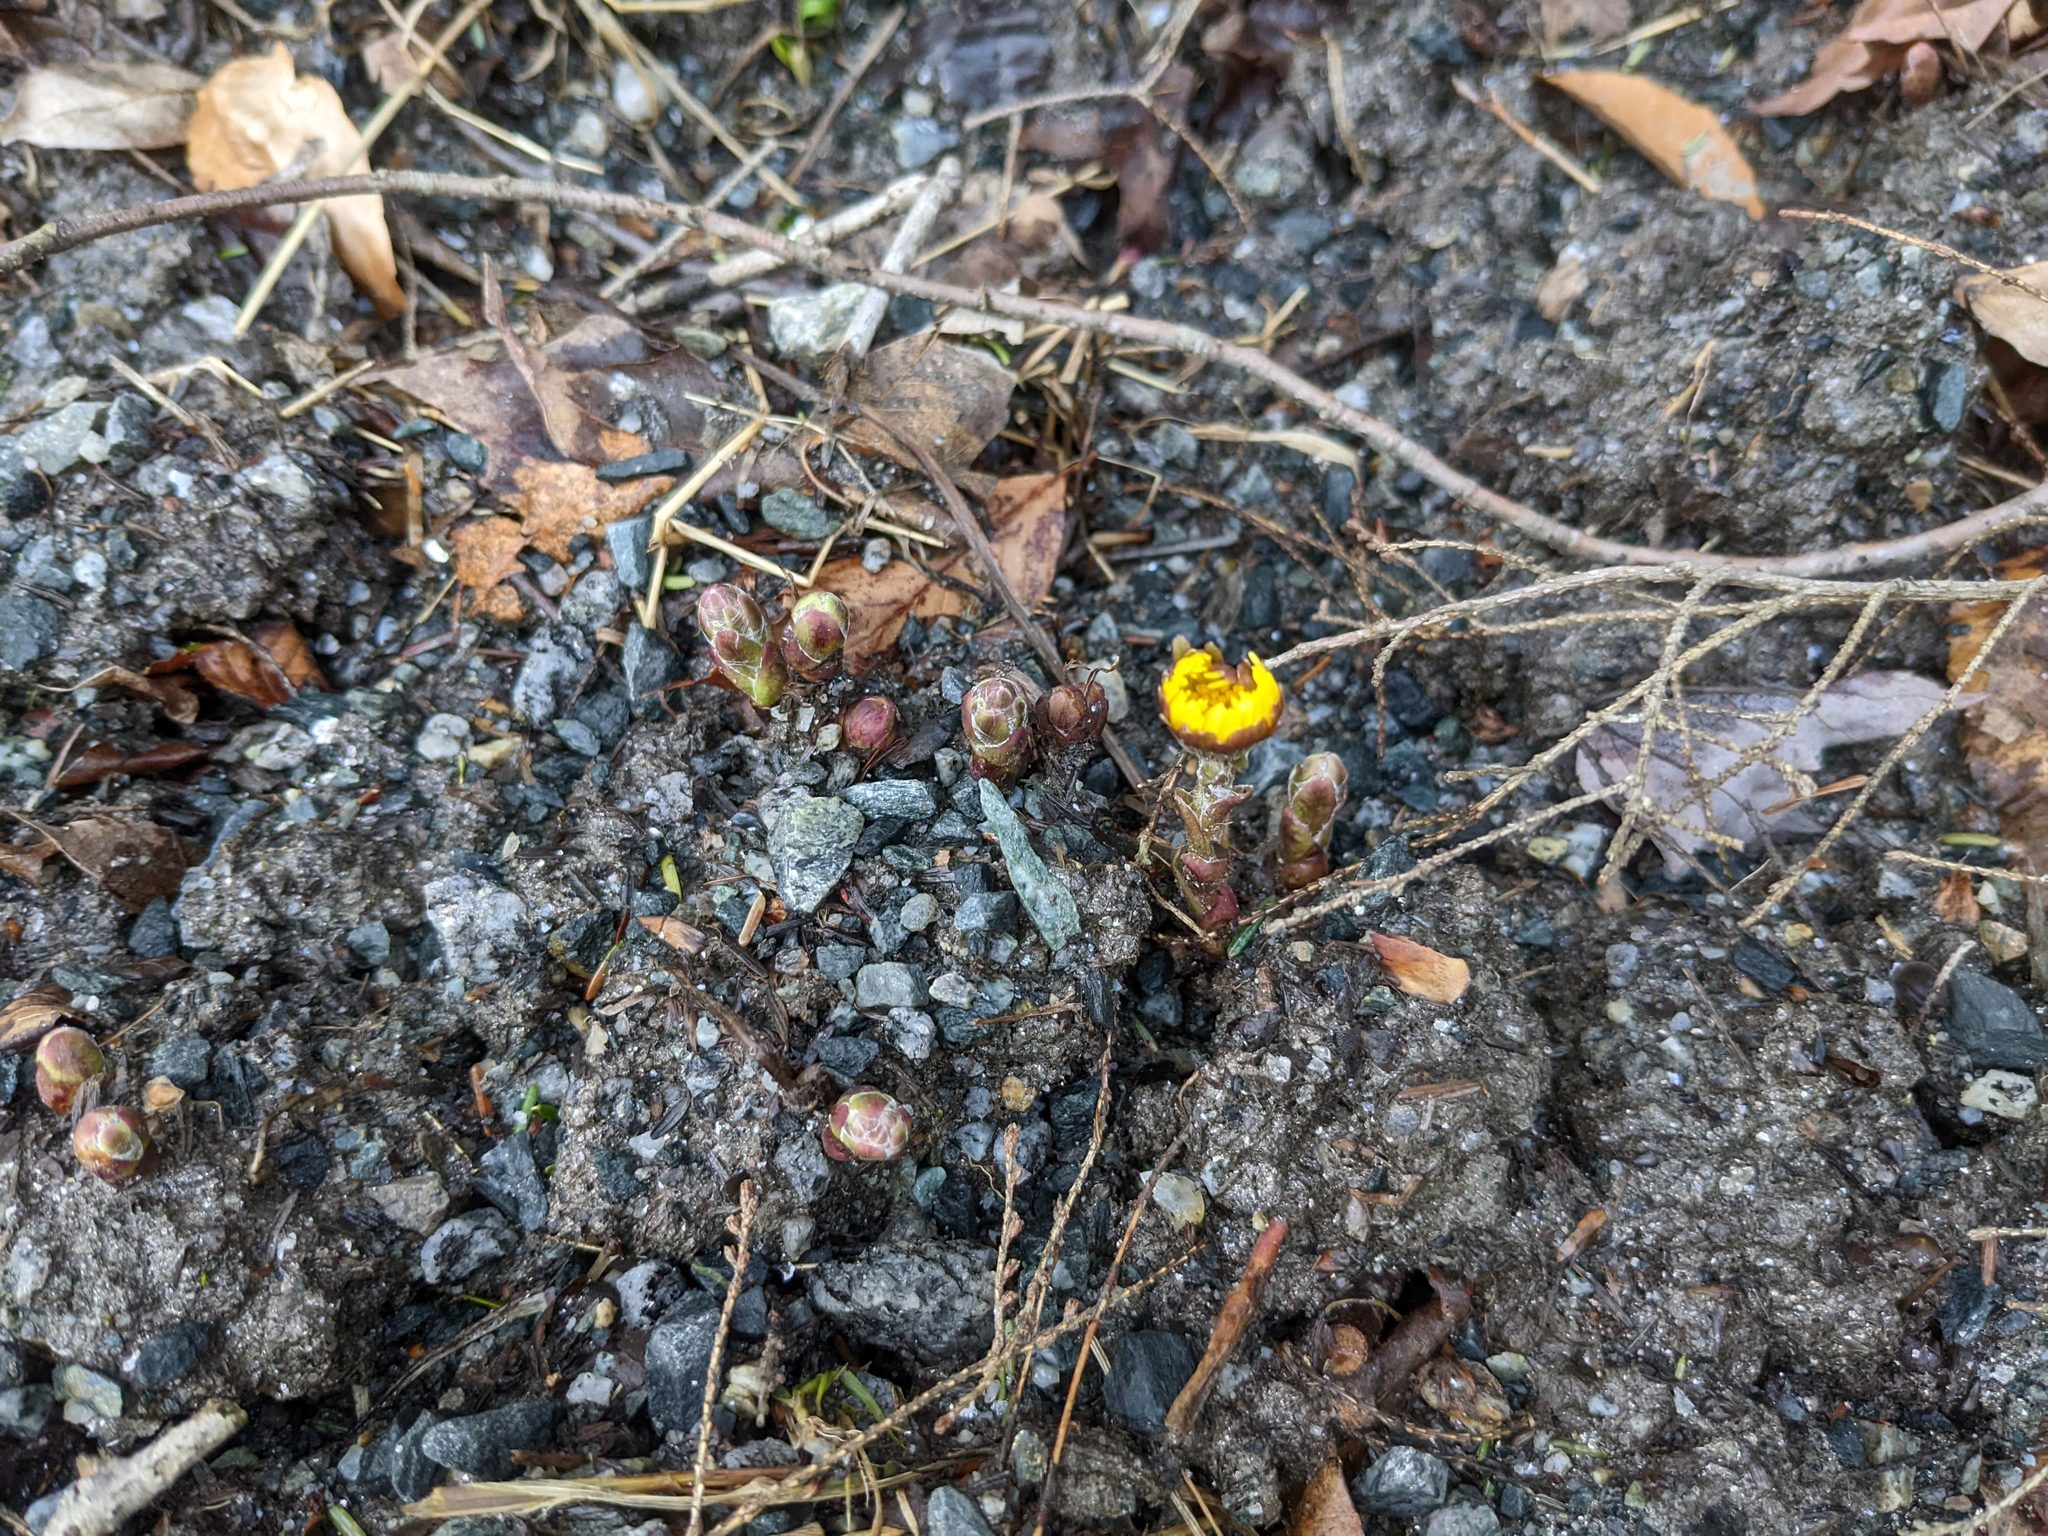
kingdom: Plantae
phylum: Tracheophyta
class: Magnoliopsida
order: Asterales
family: Asteraceae
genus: Tussilago
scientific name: Tussilago farfara
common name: Coltsfoot
